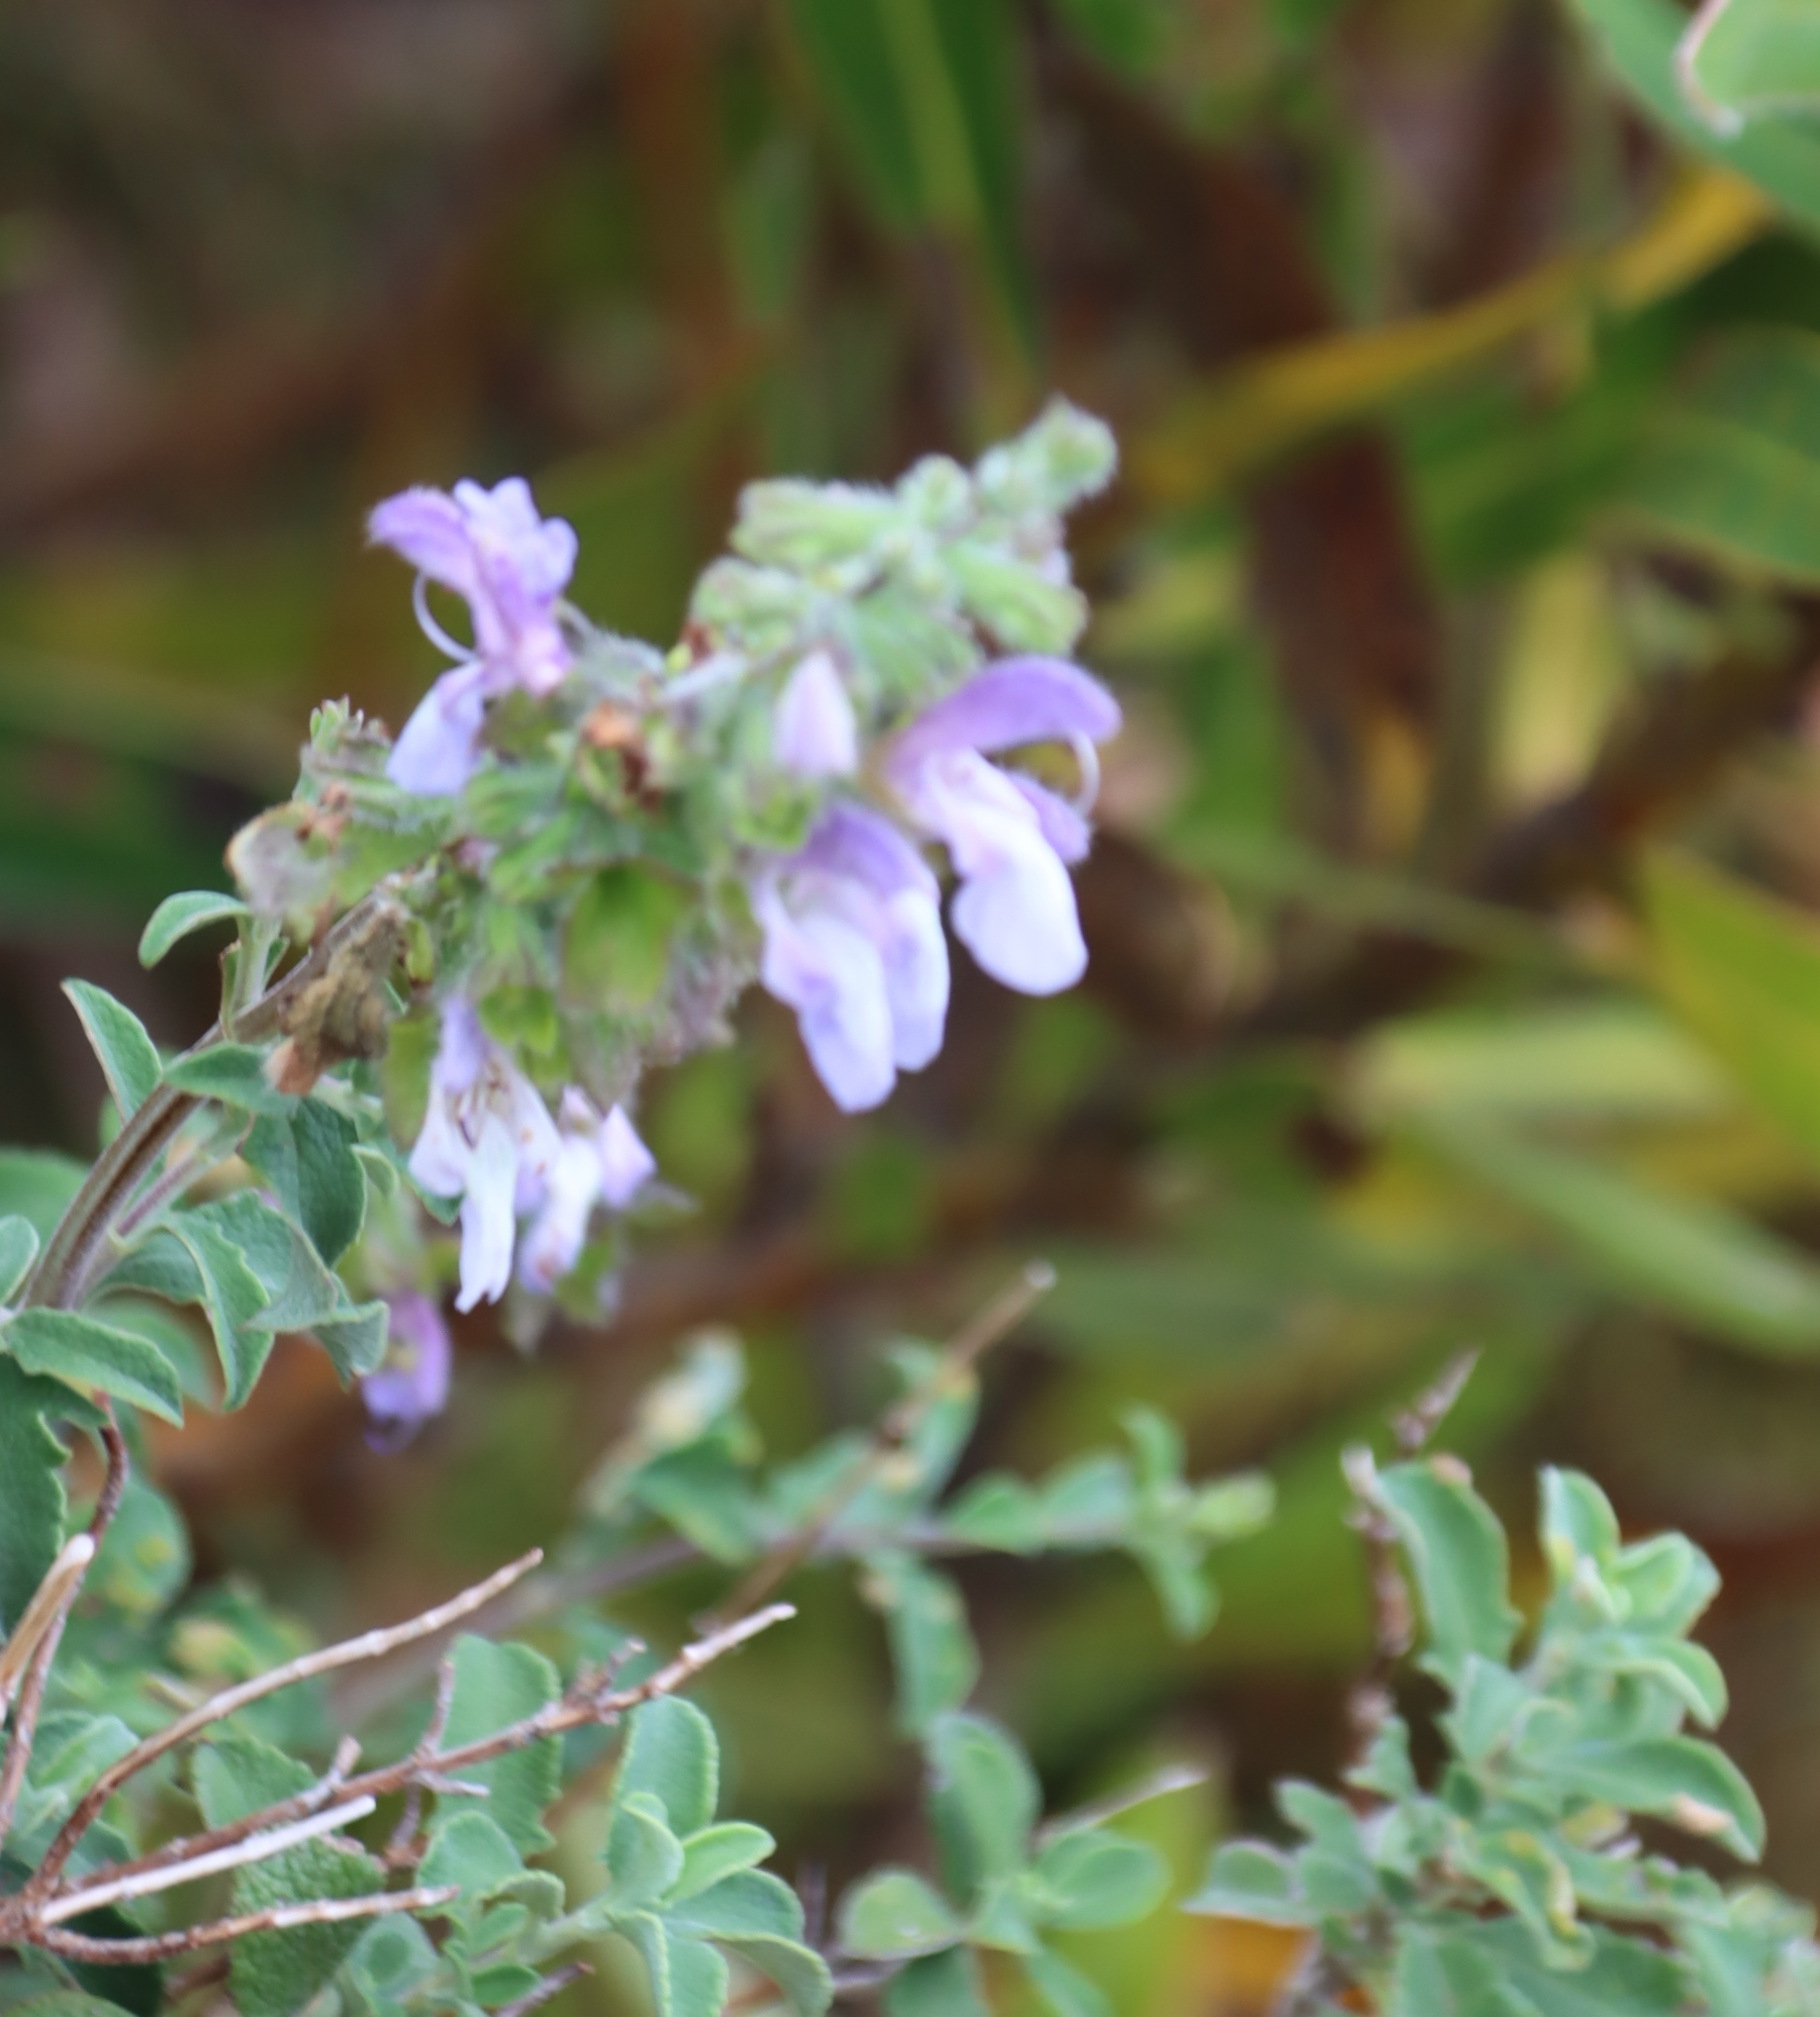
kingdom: Plantae
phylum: Tracheophyta
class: Magnoliopsida
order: Lamiales
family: Lamiaceae
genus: Salvia
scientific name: Salvia africana
